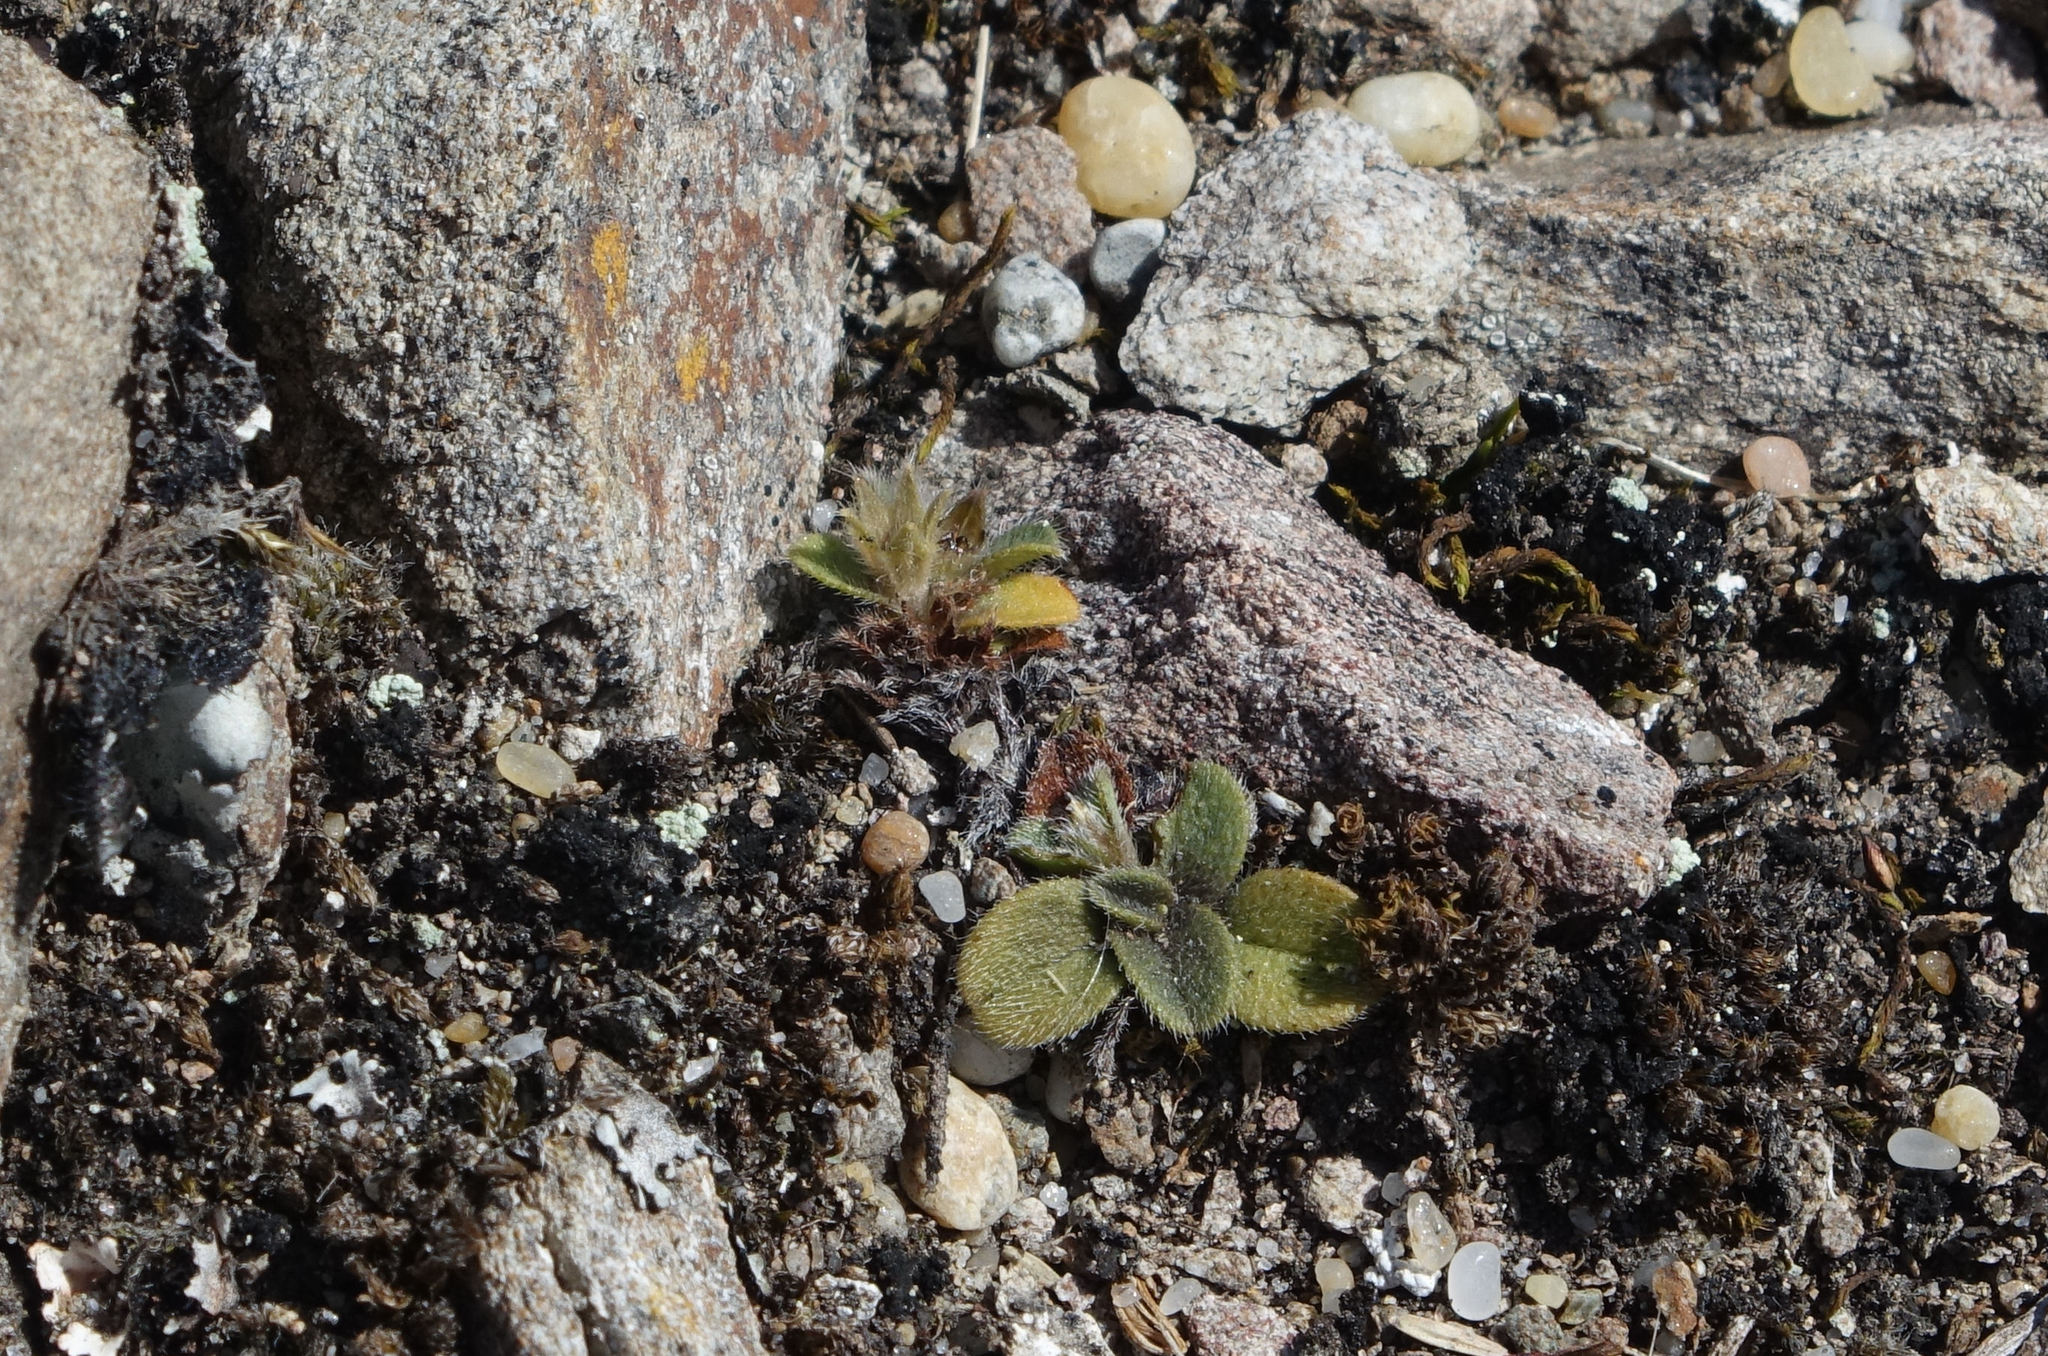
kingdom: Plantae
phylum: Tracheophyta
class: Magnoliopsida
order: Boraginales
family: Boraginaceae
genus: Myosotis
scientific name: Myosotis antarctica
